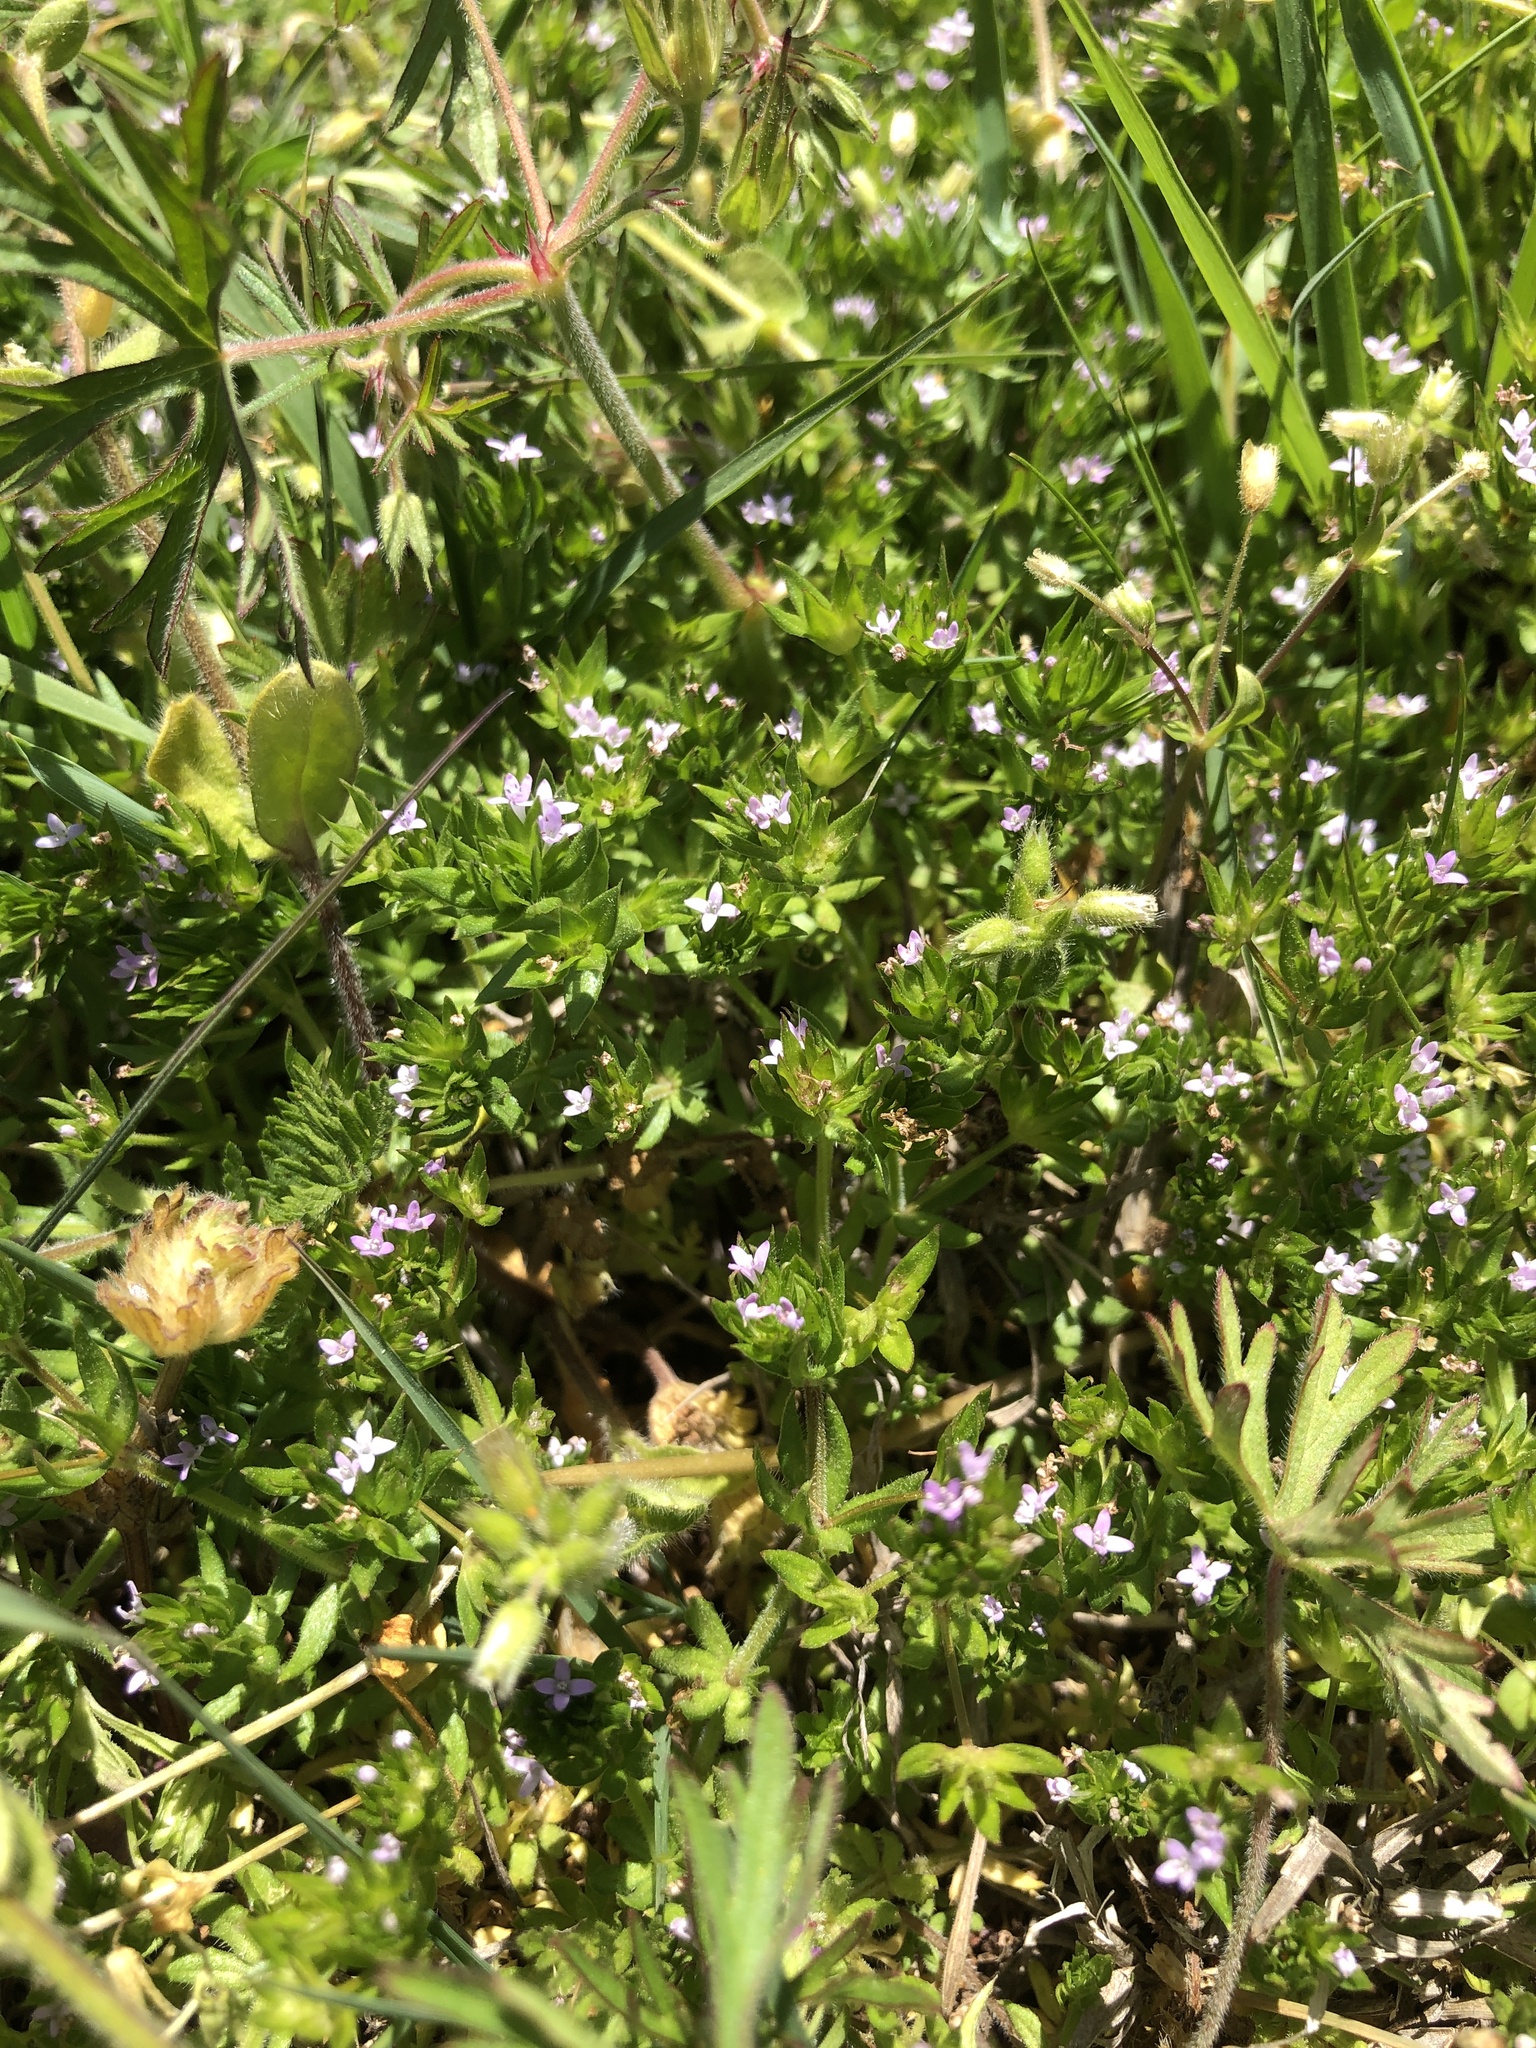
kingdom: Plantae
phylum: Tracheophyta
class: Magnoliopsida
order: Gentianales
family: Rubiaceae
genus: Sherardia
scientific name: Sherardia arvensis
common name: Field madder
